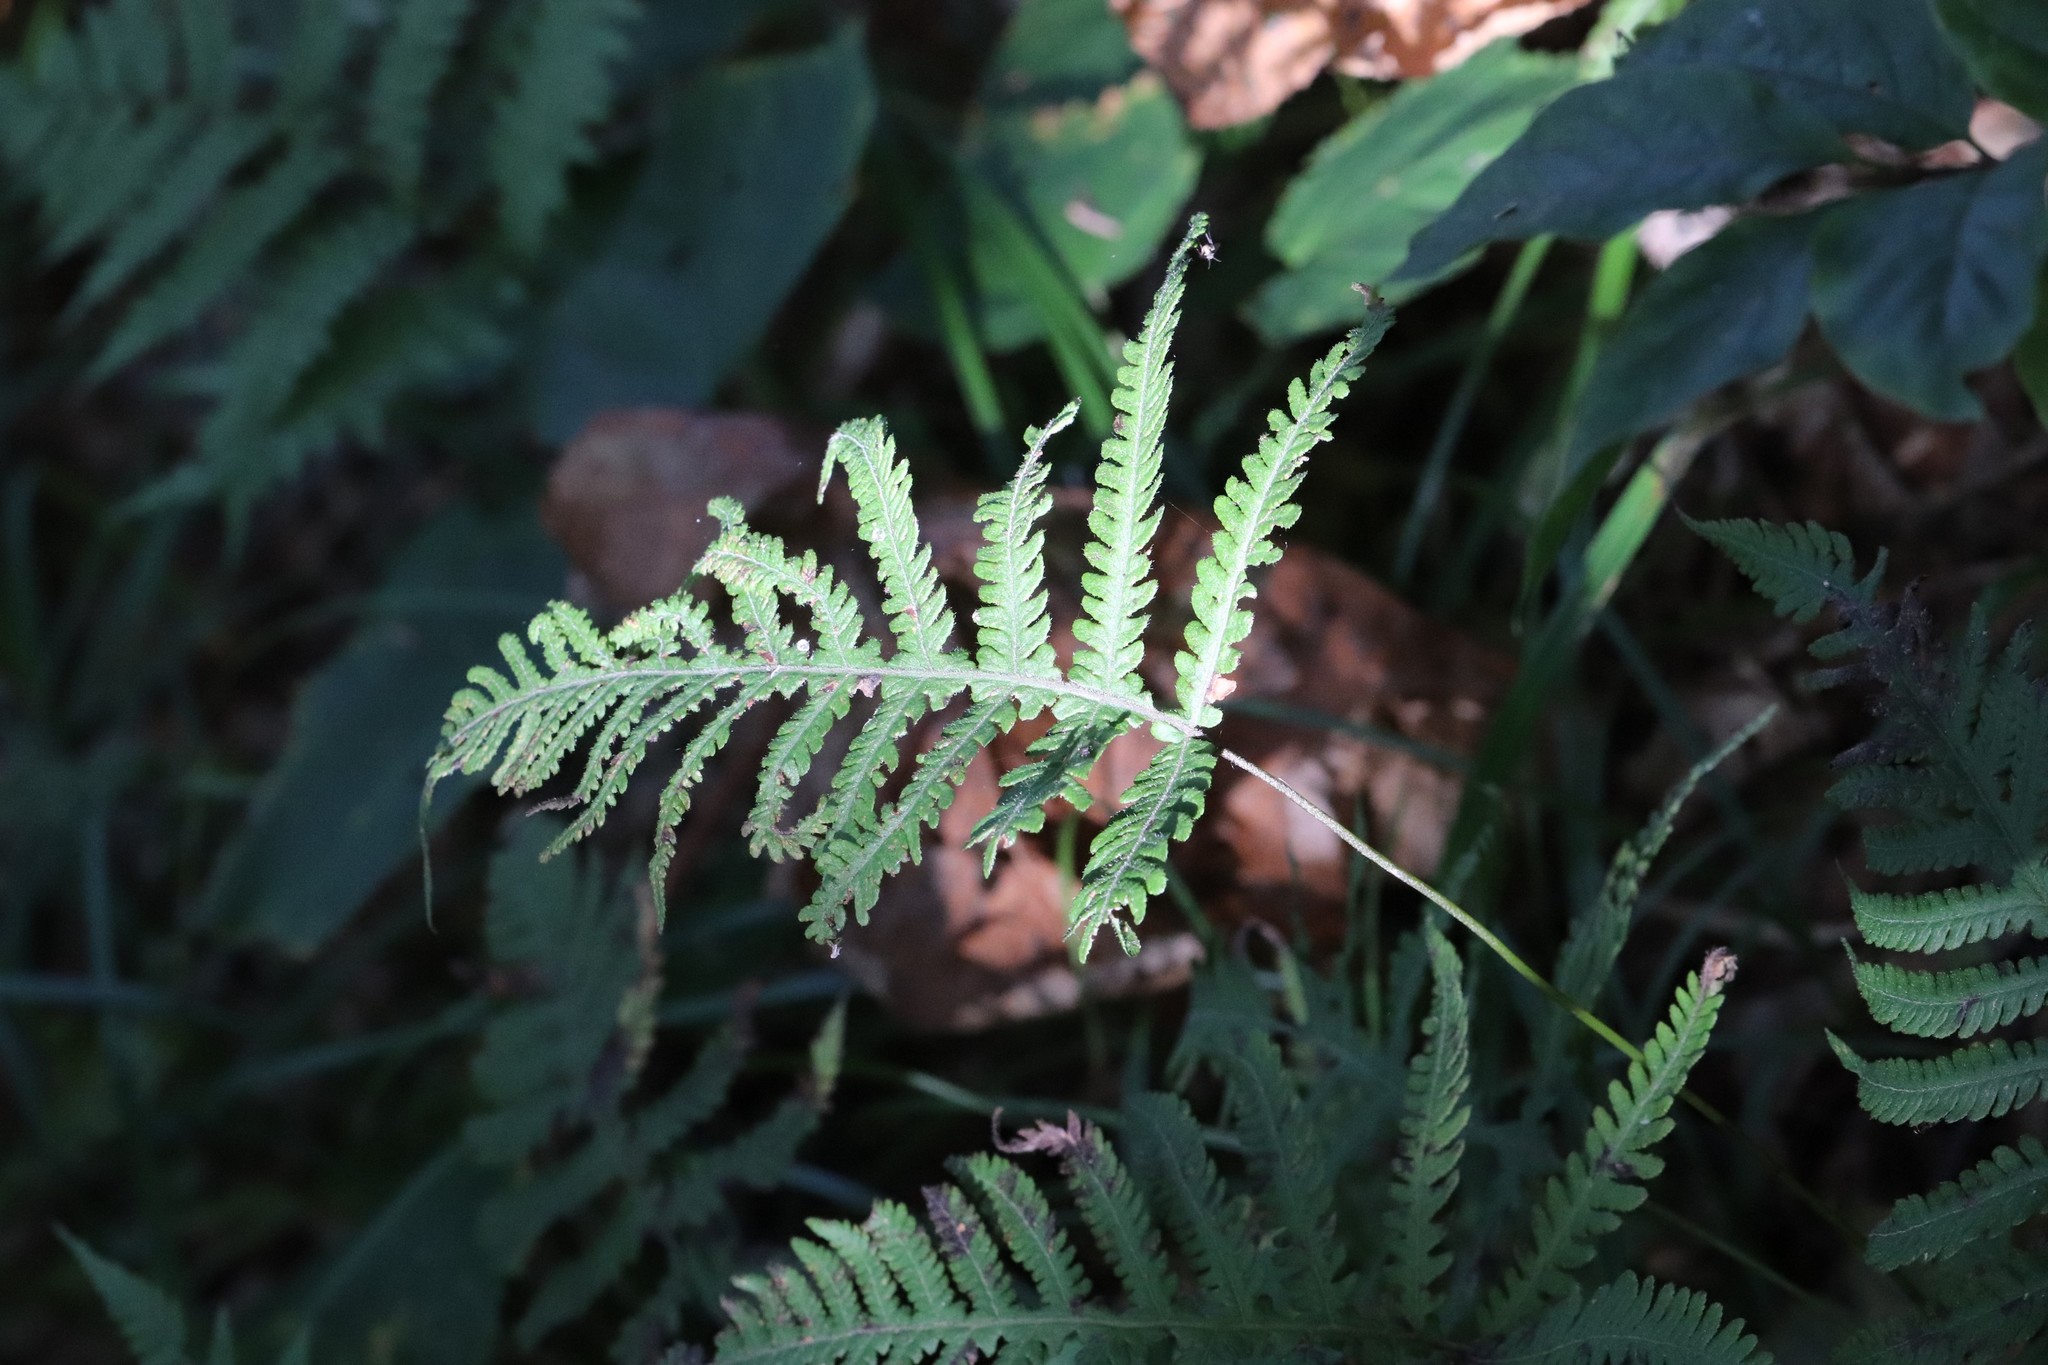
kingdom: Plantae
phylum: Tracheophyta
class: Polypodiopsida
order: Polypodiales
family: Thelypteridaceae
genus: Phegopteris
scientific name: Phegopteris connectilis
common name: Beech fern
